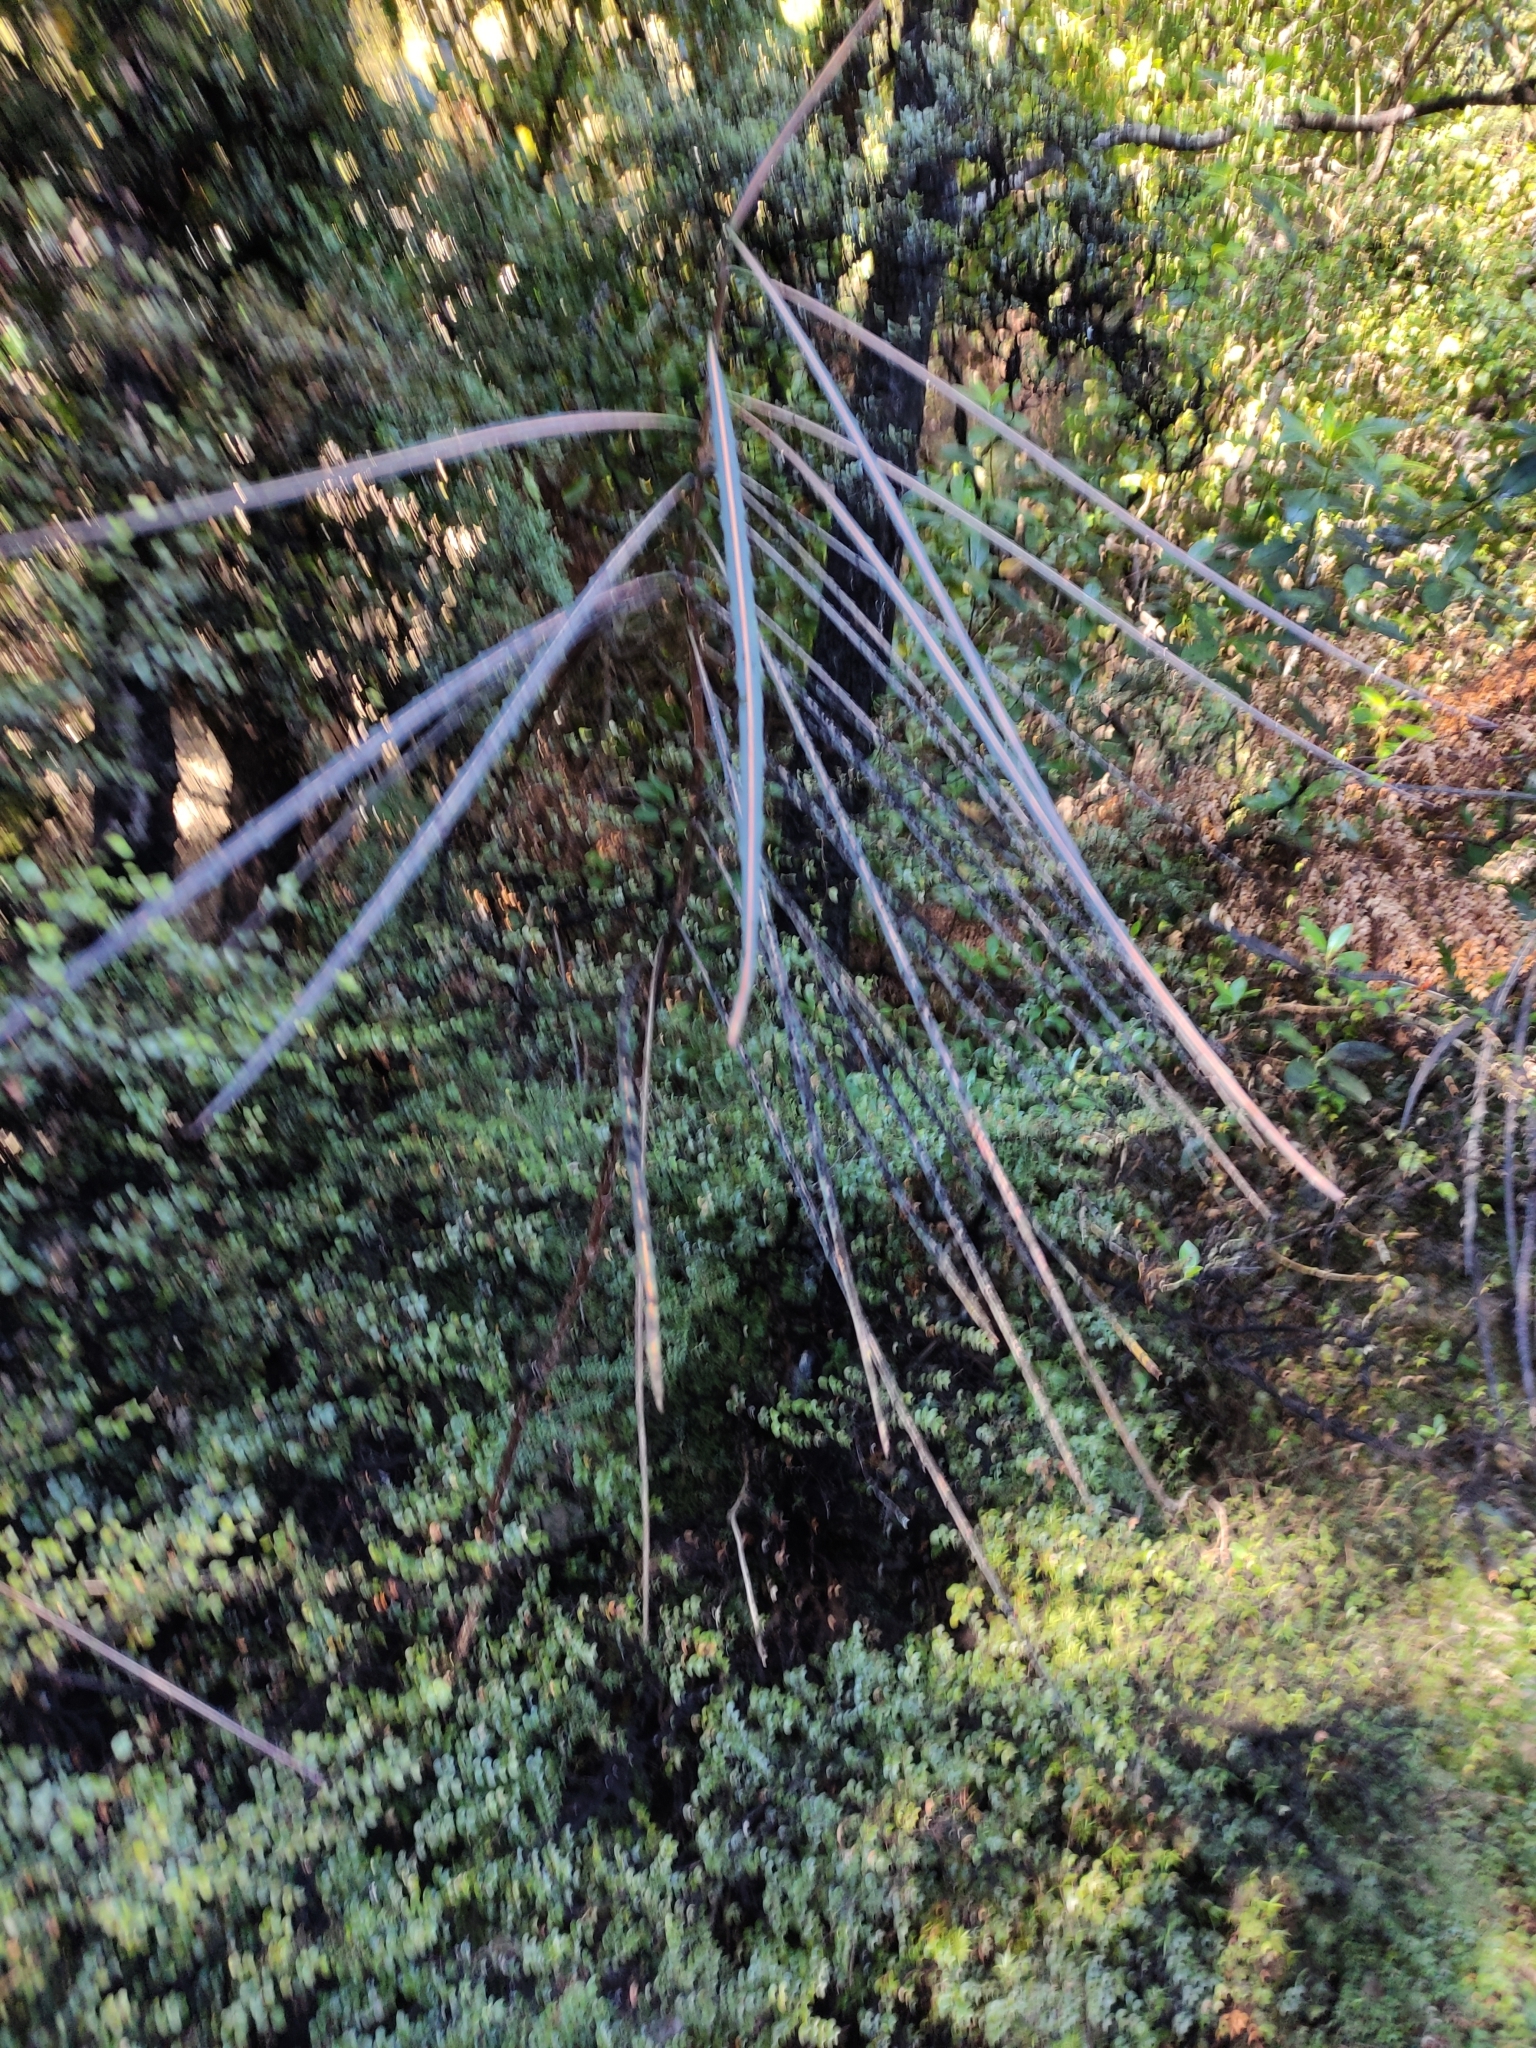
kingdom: Plantae
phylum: Tracheophyta
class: Magnoliopsida
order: Apiales
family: Araliaceae
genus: Pseudopanax
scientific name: Pseudopanax crassifolius
